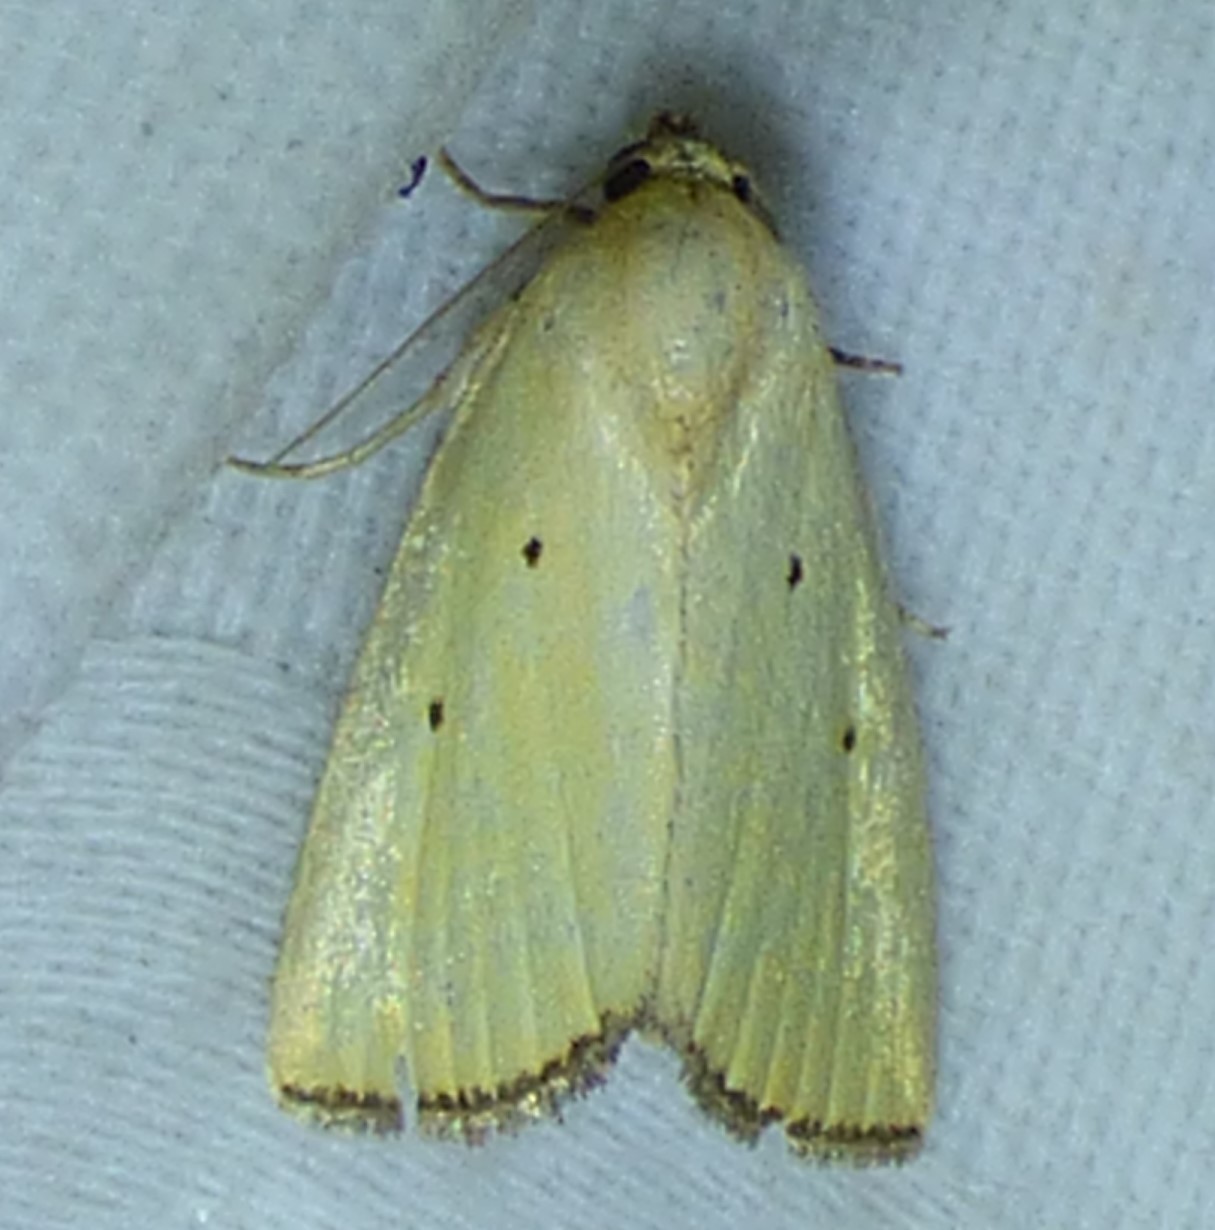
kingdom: Animalia
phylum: Arthropoda
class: Insecta
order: Lepidoptera
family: Noctuidae
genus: Marimatha
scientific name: Marimatha nigrofimbria
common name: Black-bordered lemon moth
